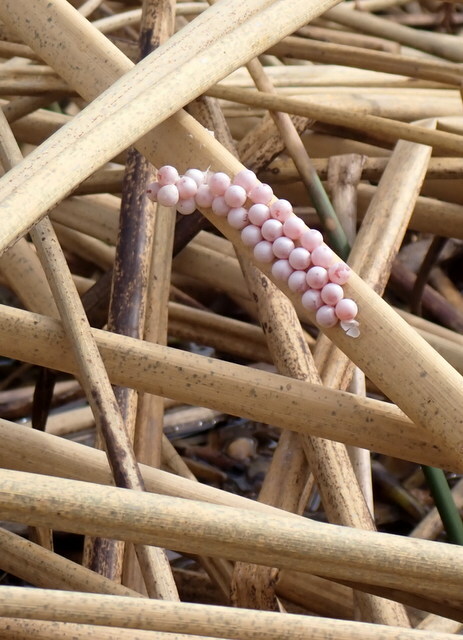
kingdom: Animalia
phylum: Mollusca
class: Gastropoda
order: Architaenioglossa
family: Ampullariidae
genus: Pomacea
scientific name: Pomacea paludosa
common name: Florida applesnail
